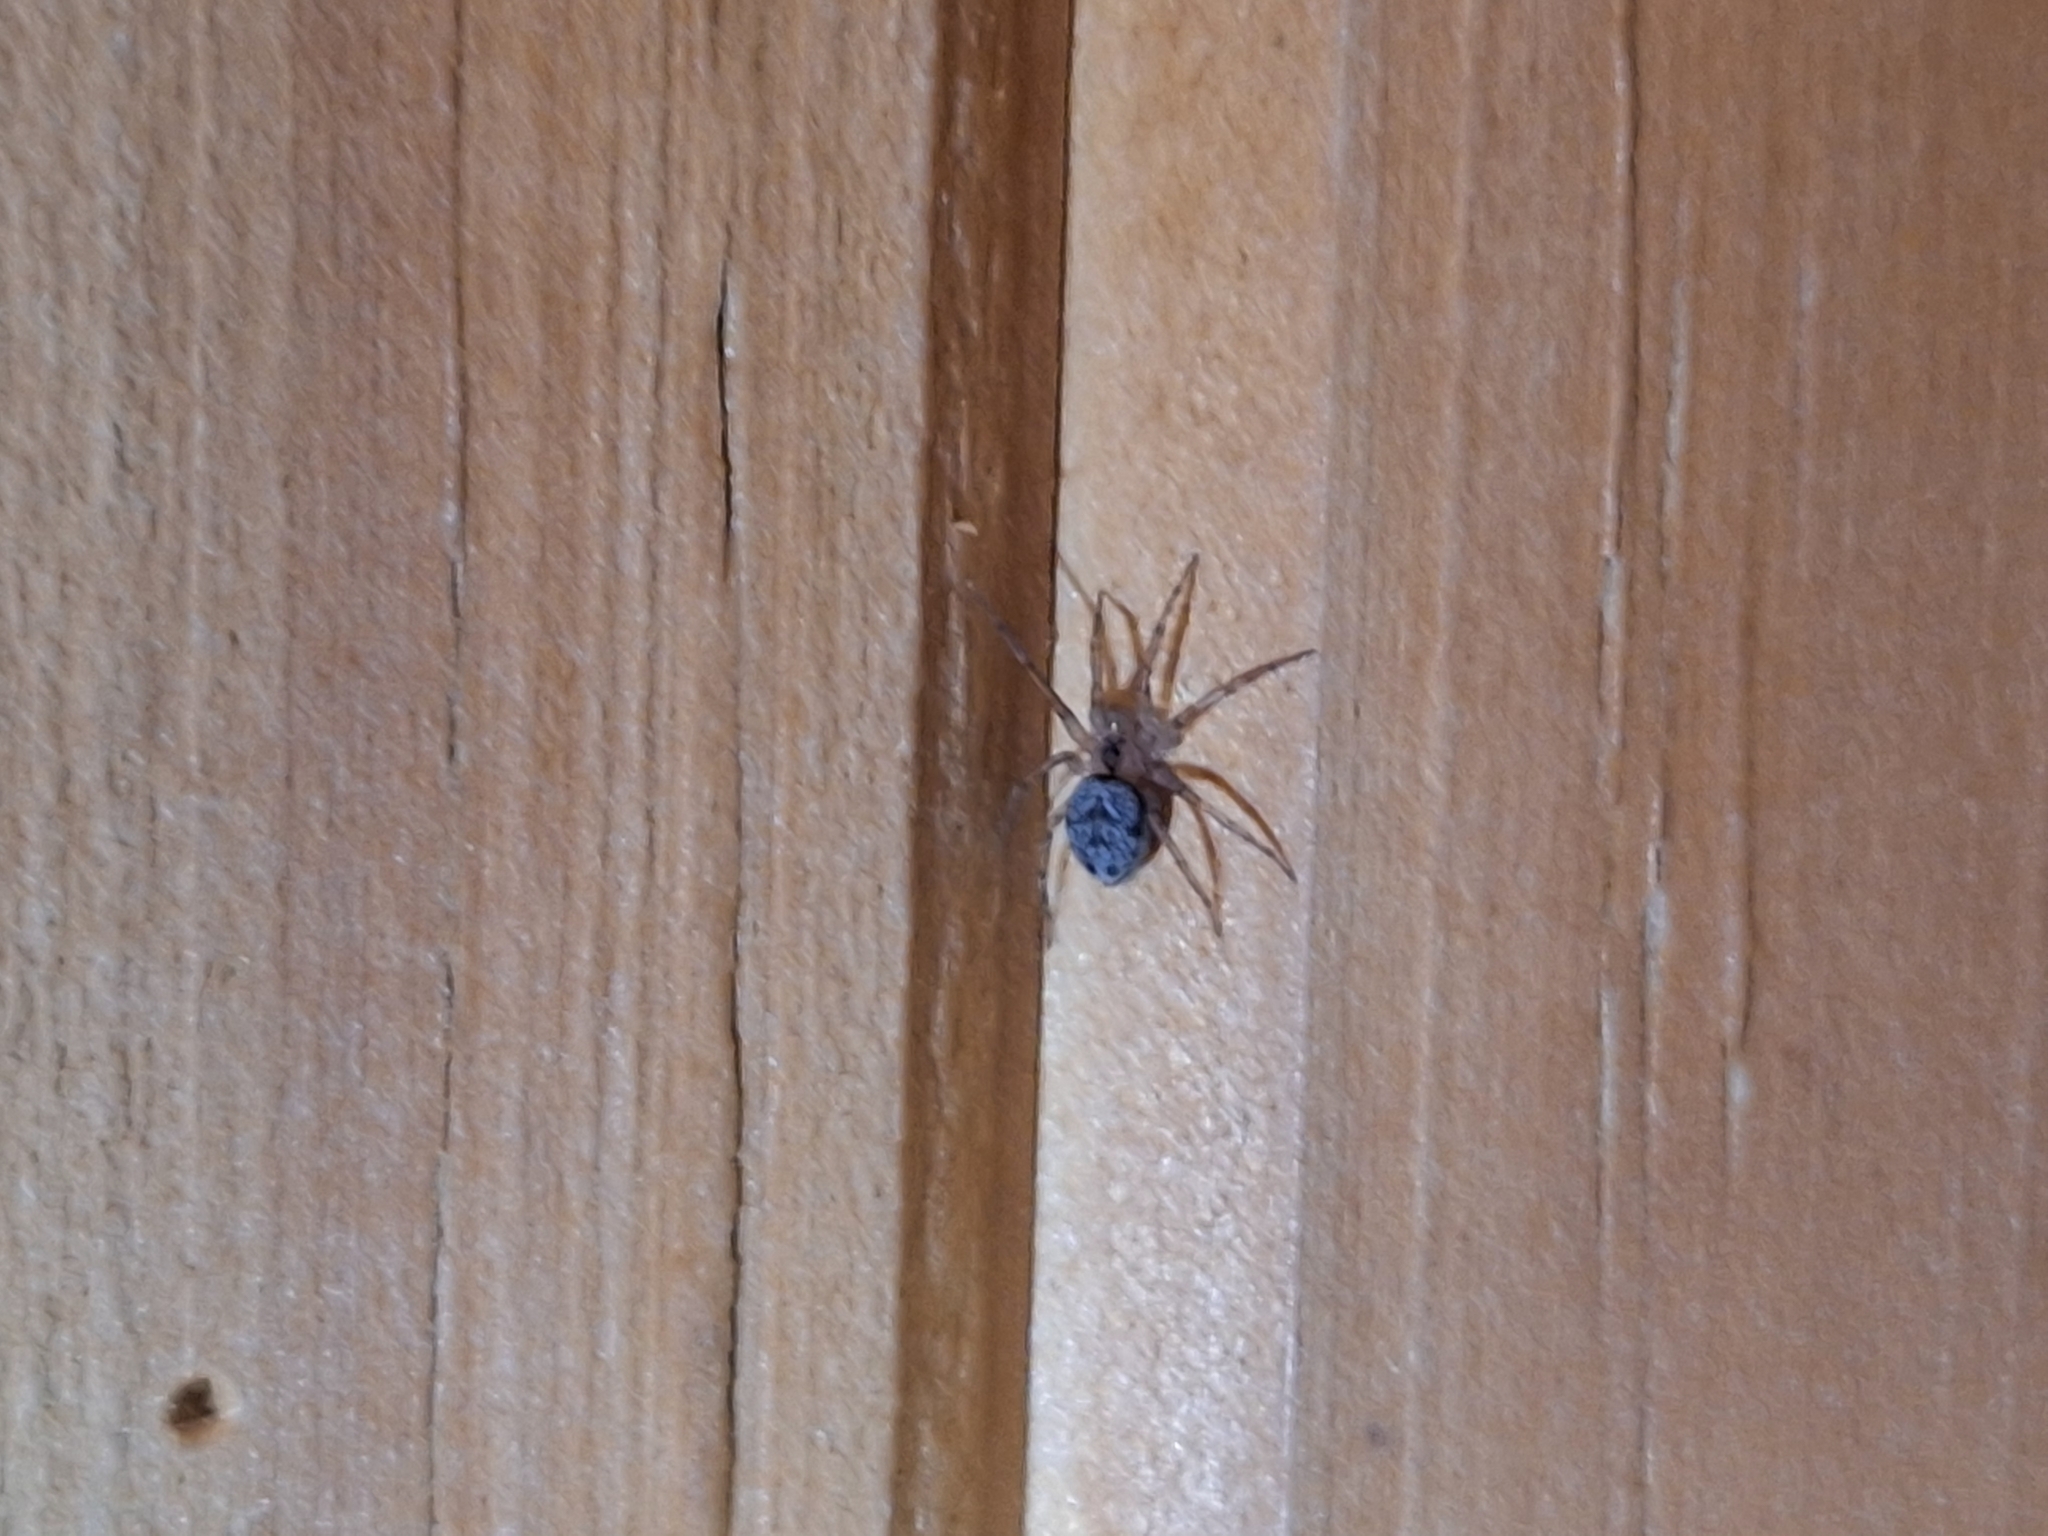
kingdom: Animalia
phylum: Arthropoda
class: Arachnida
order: Araneae
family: Oecobiidae
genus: Oecobius
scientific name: Oecobius navus
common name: Flatmesh weaver
